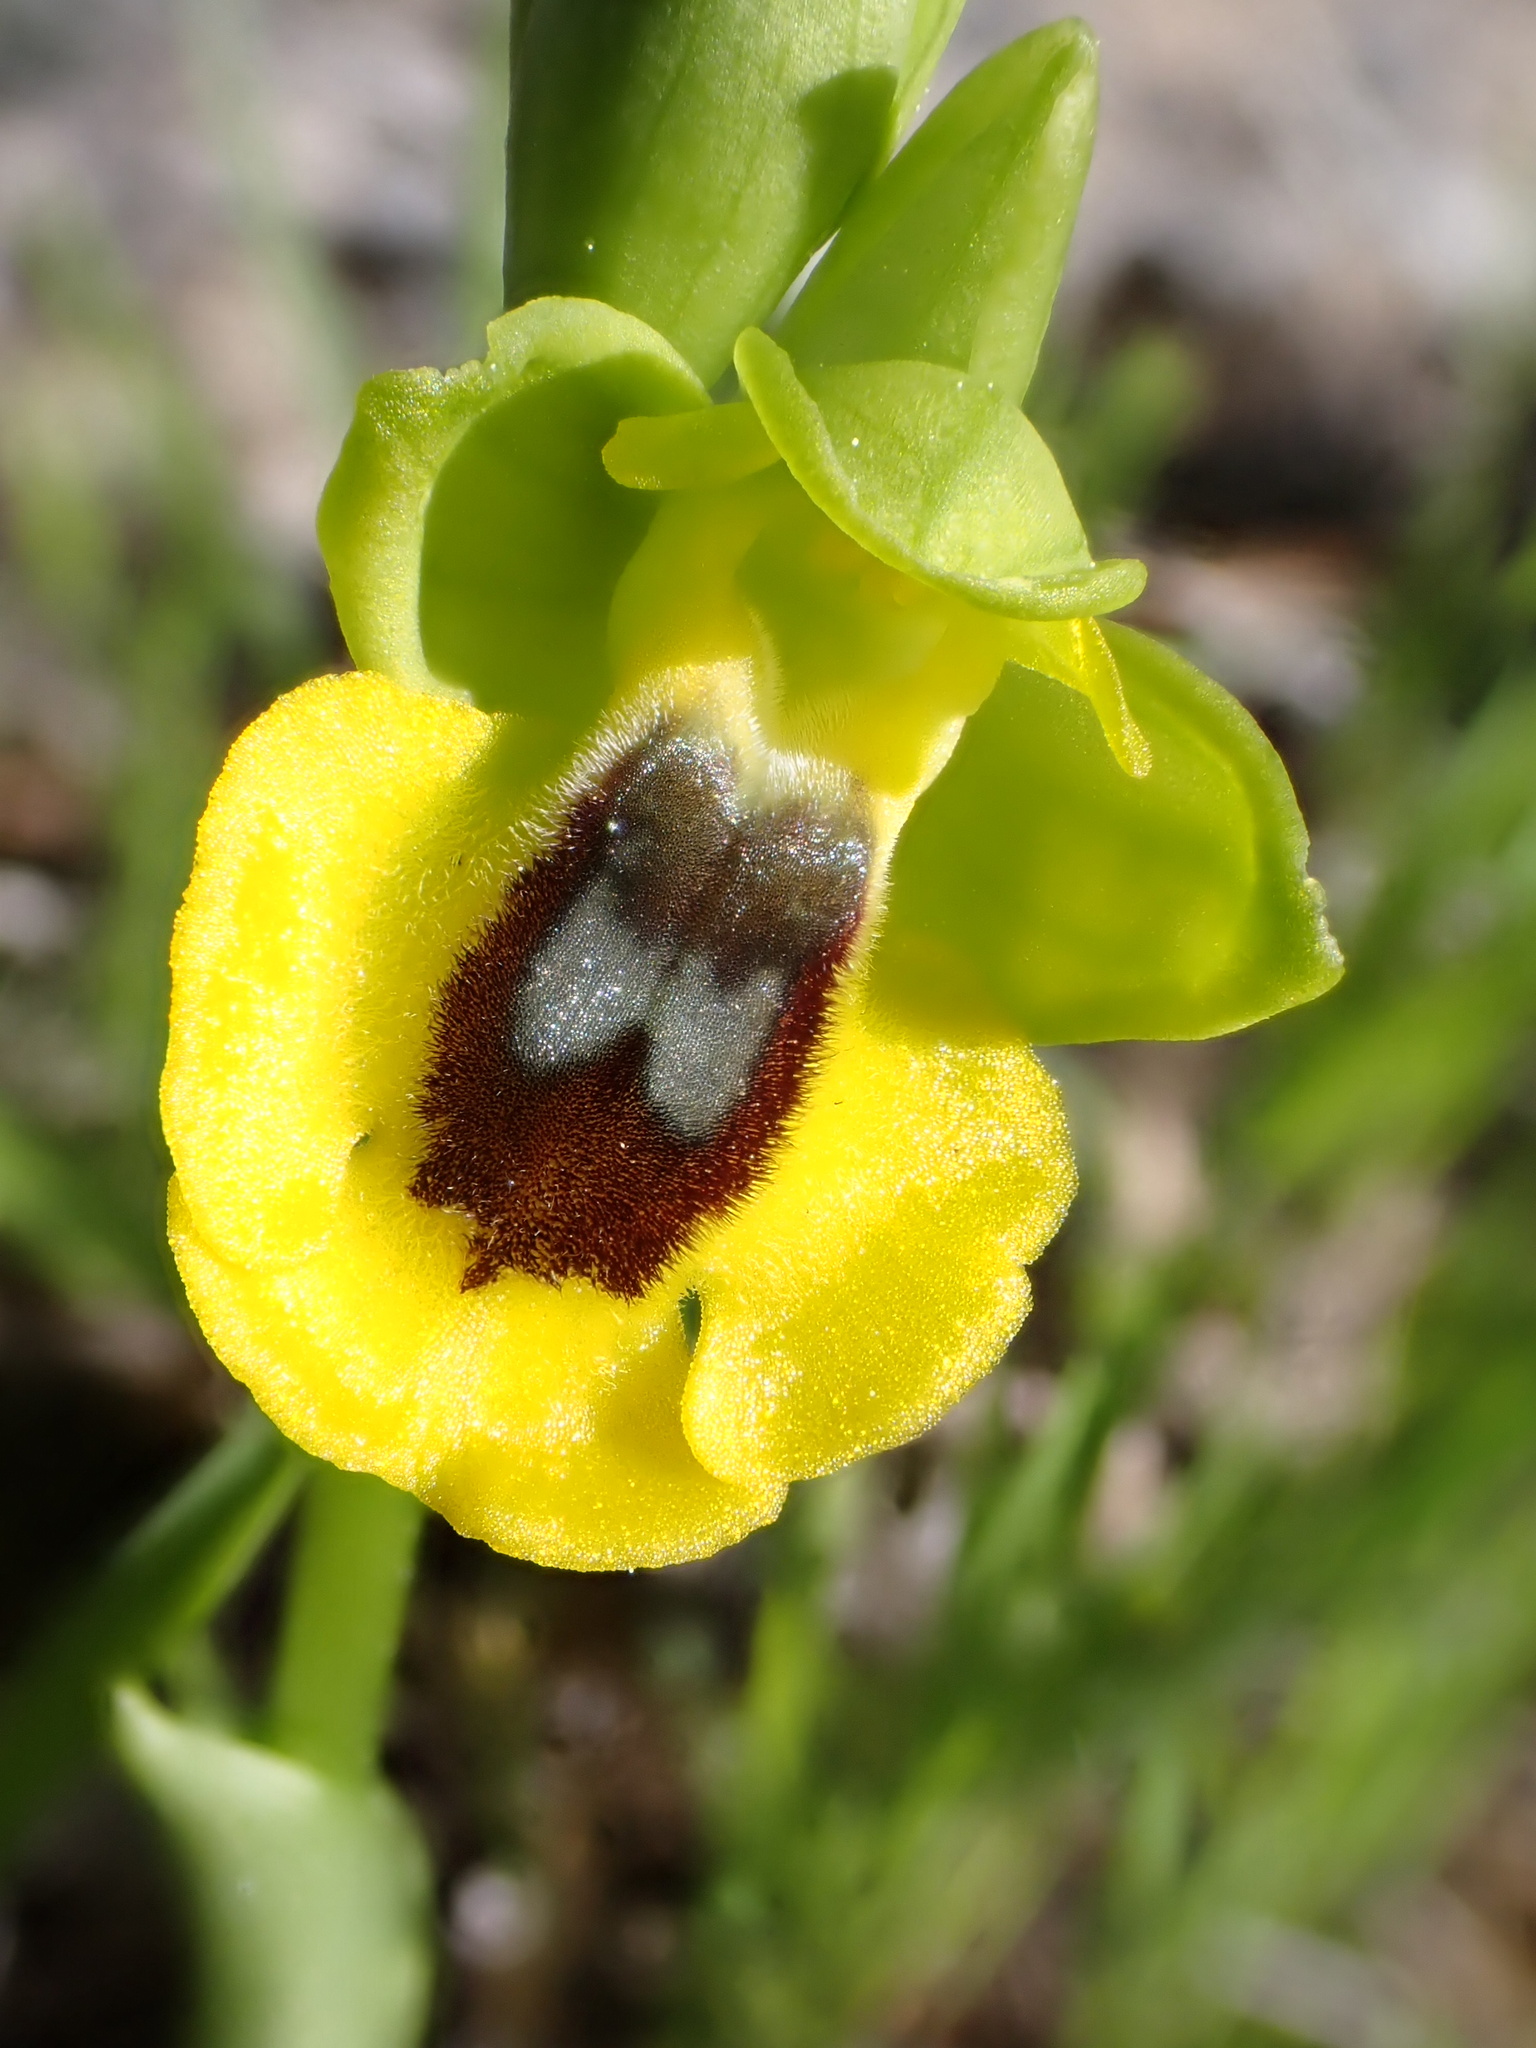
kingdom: Plantae
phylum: Tracheophyta
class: Liliopsida
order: Asparagales
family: Orchidaceae
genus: Ophrys
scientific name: Ophrys lutea
